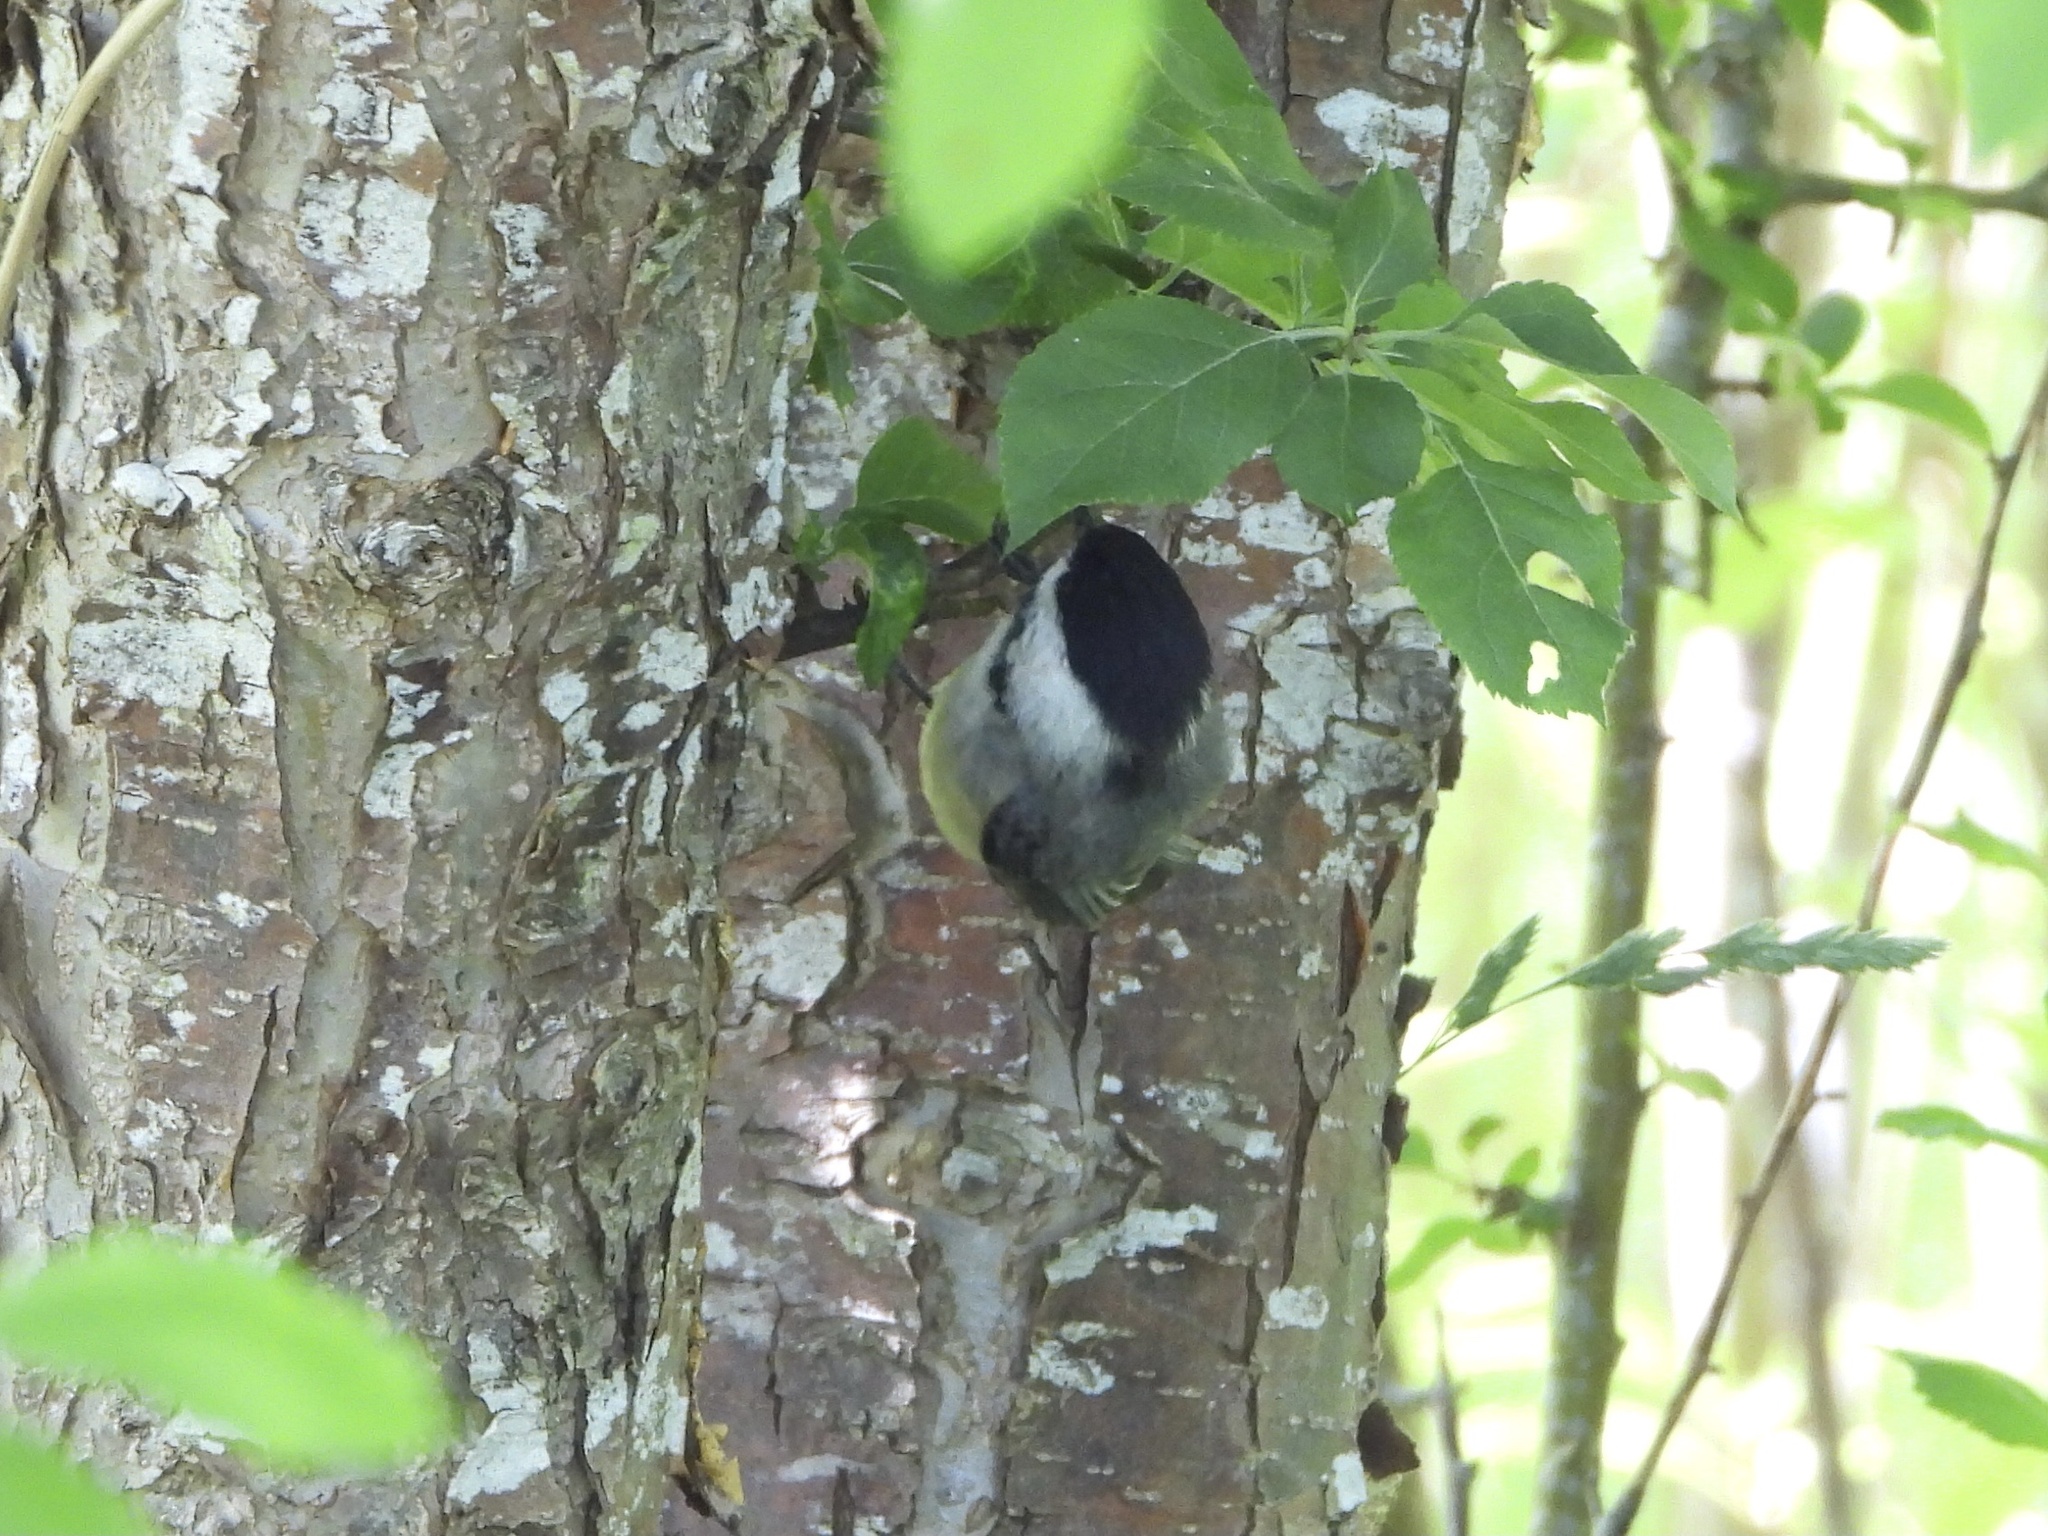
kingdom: Animalia
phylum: Chordata
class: Aves
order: Passeriformes
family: Paridae
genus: Poecile
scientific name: Poecile atricapillus
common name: Black-capped chickadee
